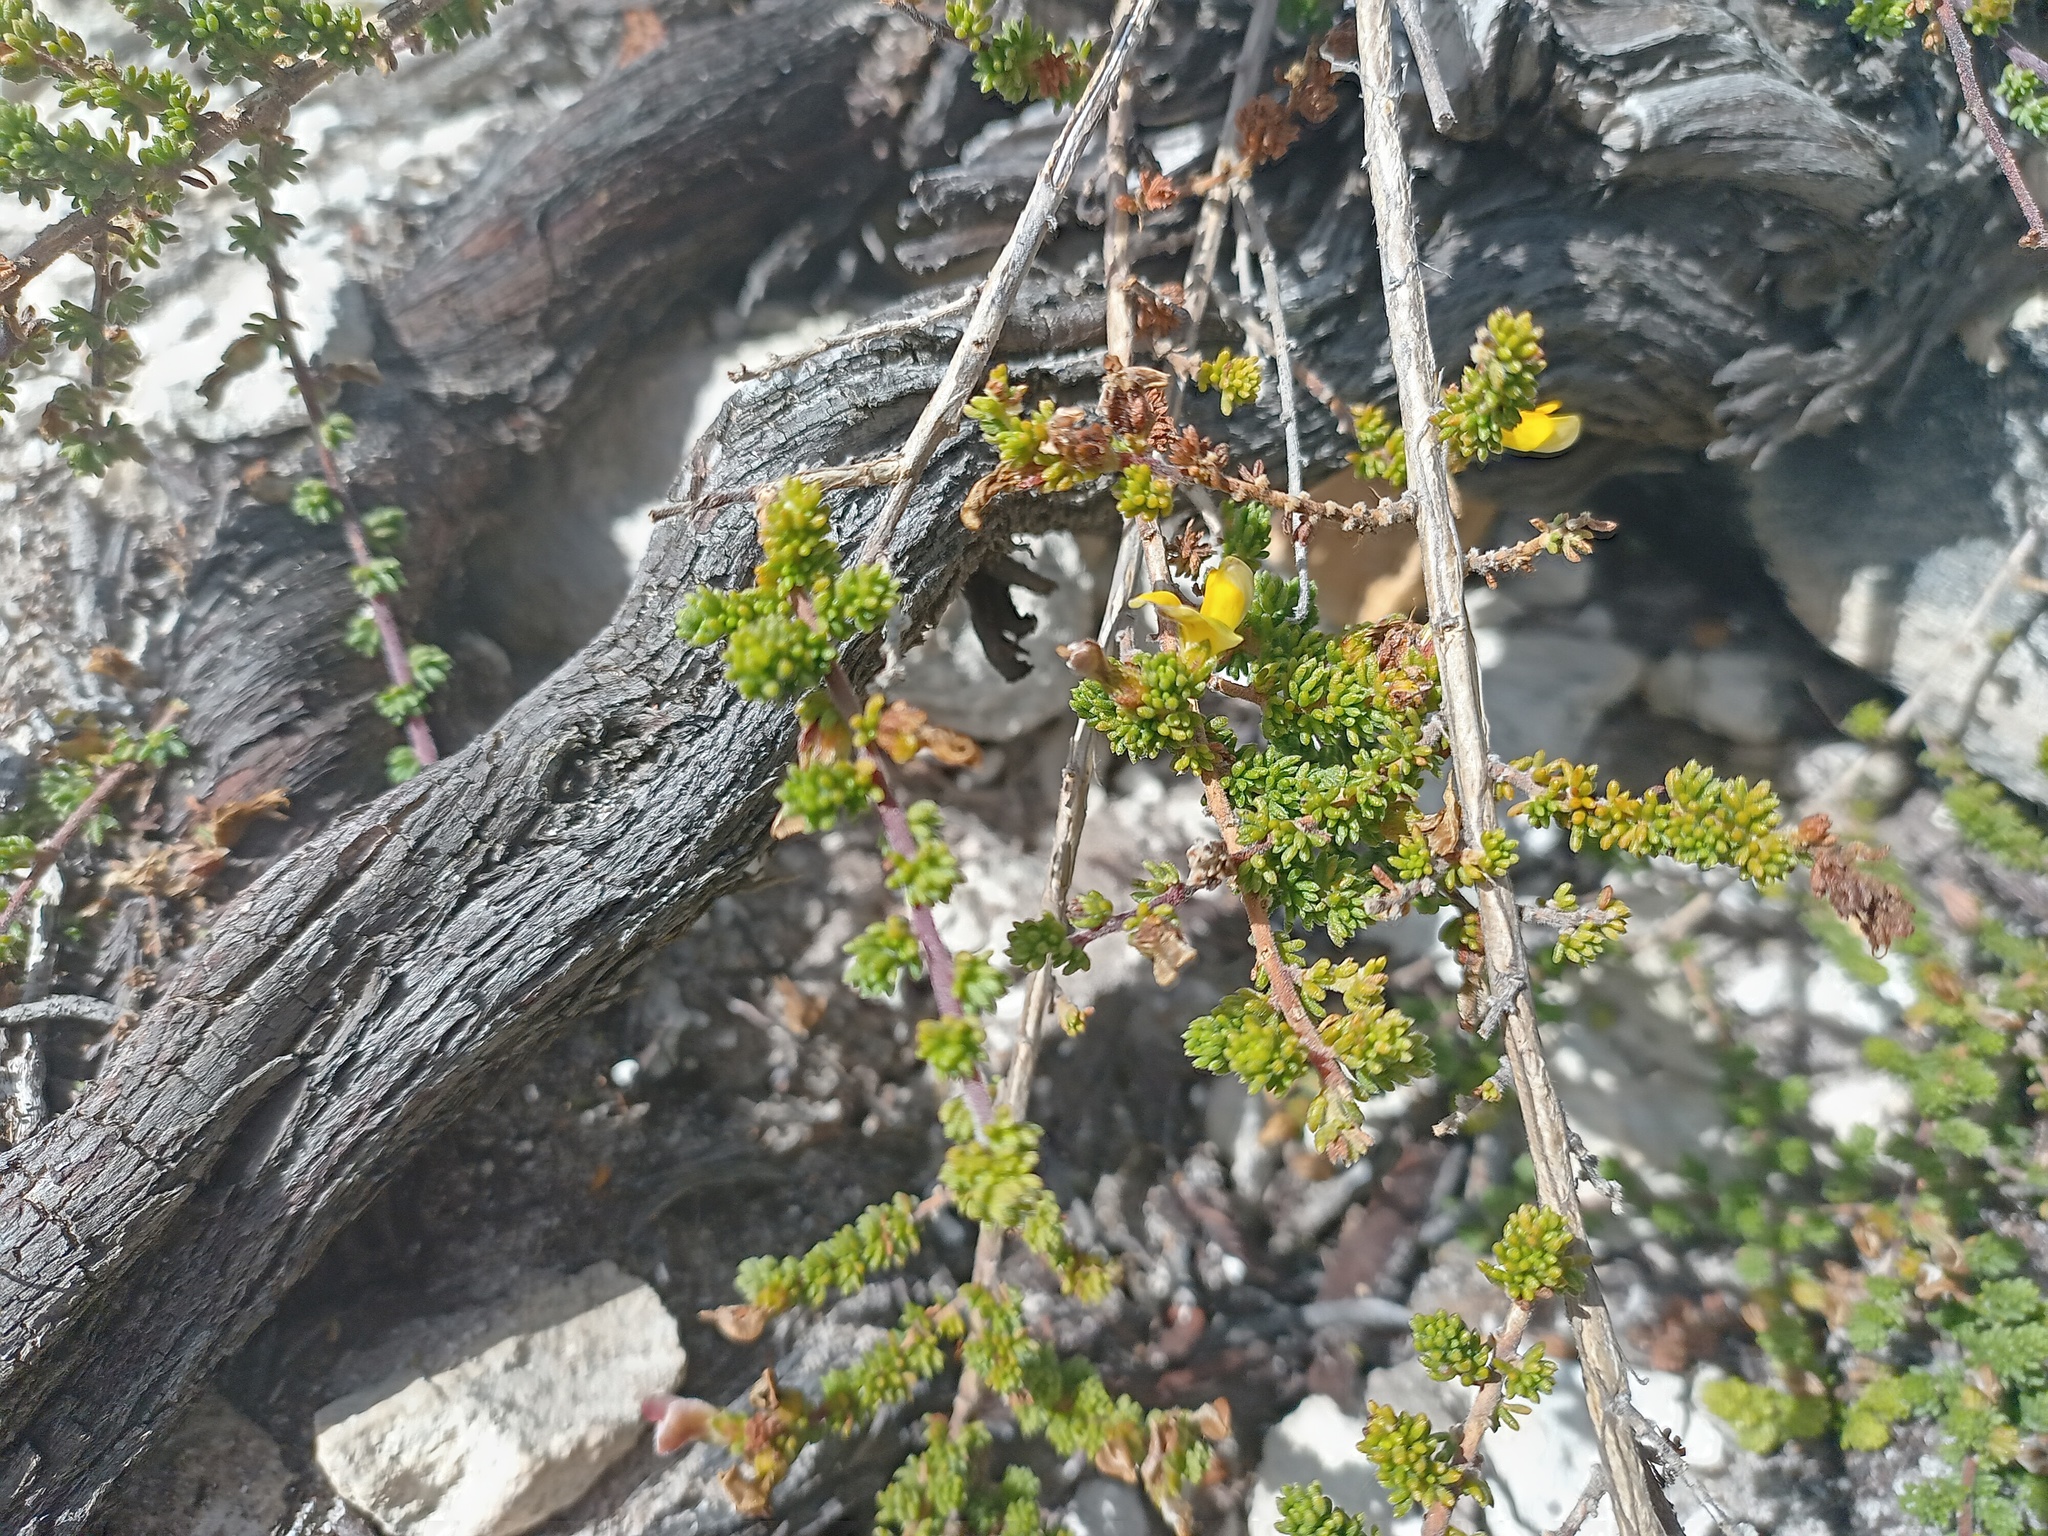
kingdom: Plantae
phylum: Tracheophyta
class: Magnoliopsida
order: Fabales
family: Fabaceae
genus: Aspalathus
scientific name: Aspalathus salteri
